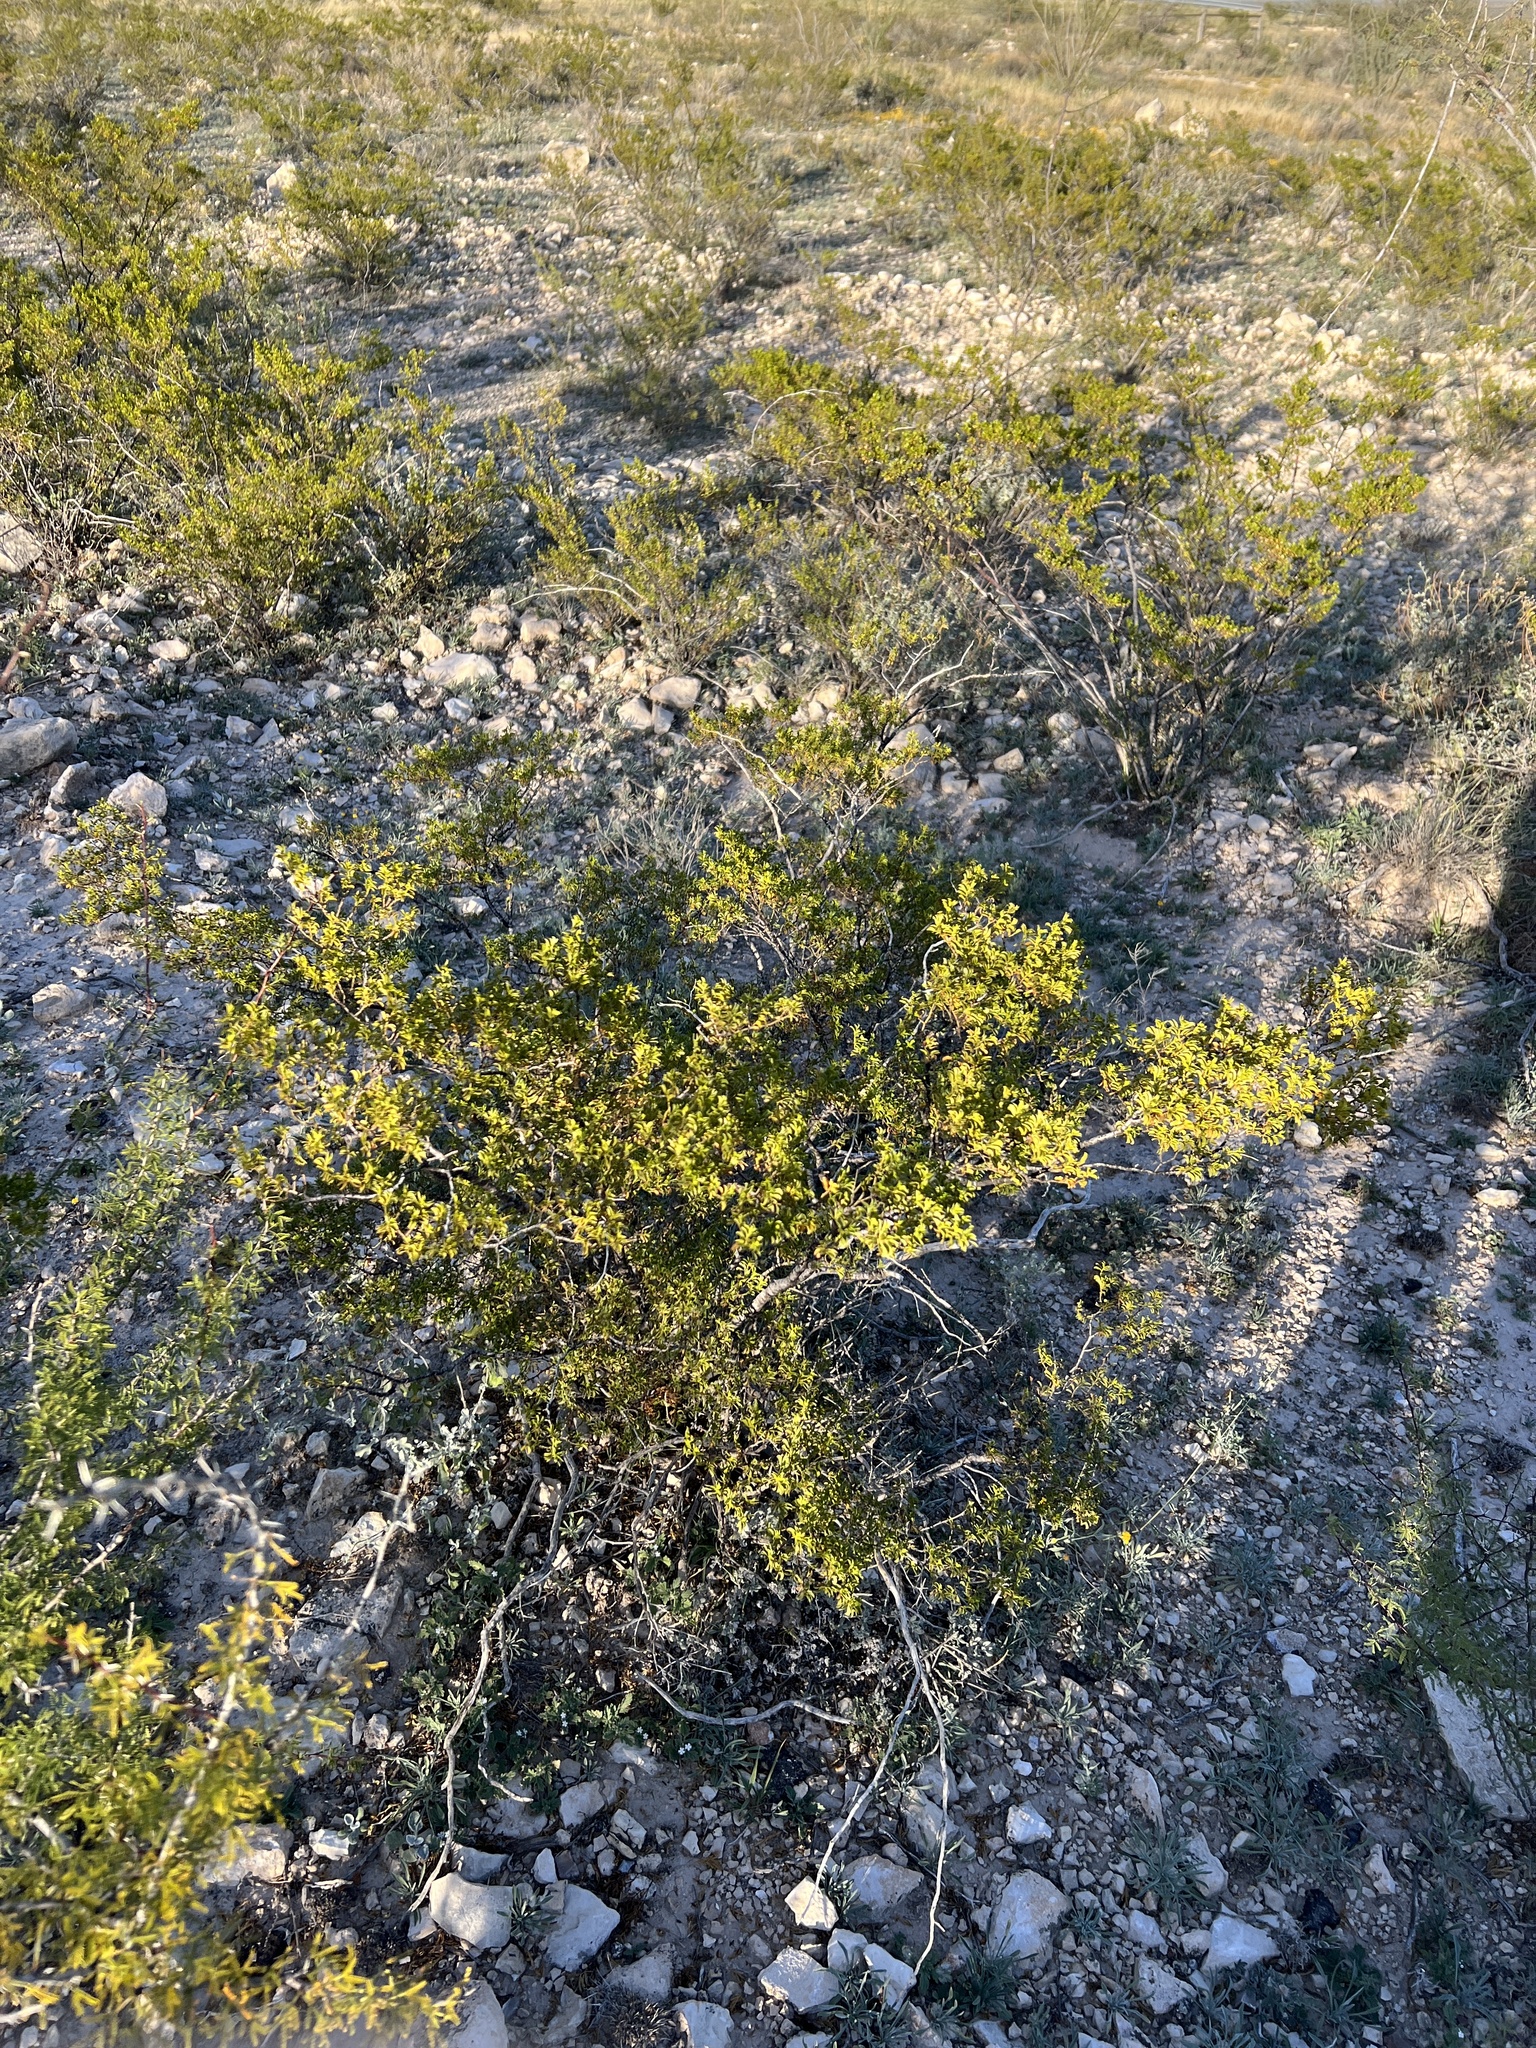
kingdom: Plantae
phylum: Tracheophyta
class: Magnoliopsida
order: Zygophyllales
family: Zygophyllaceae
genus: Larrea
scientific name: Larrea tridentata
